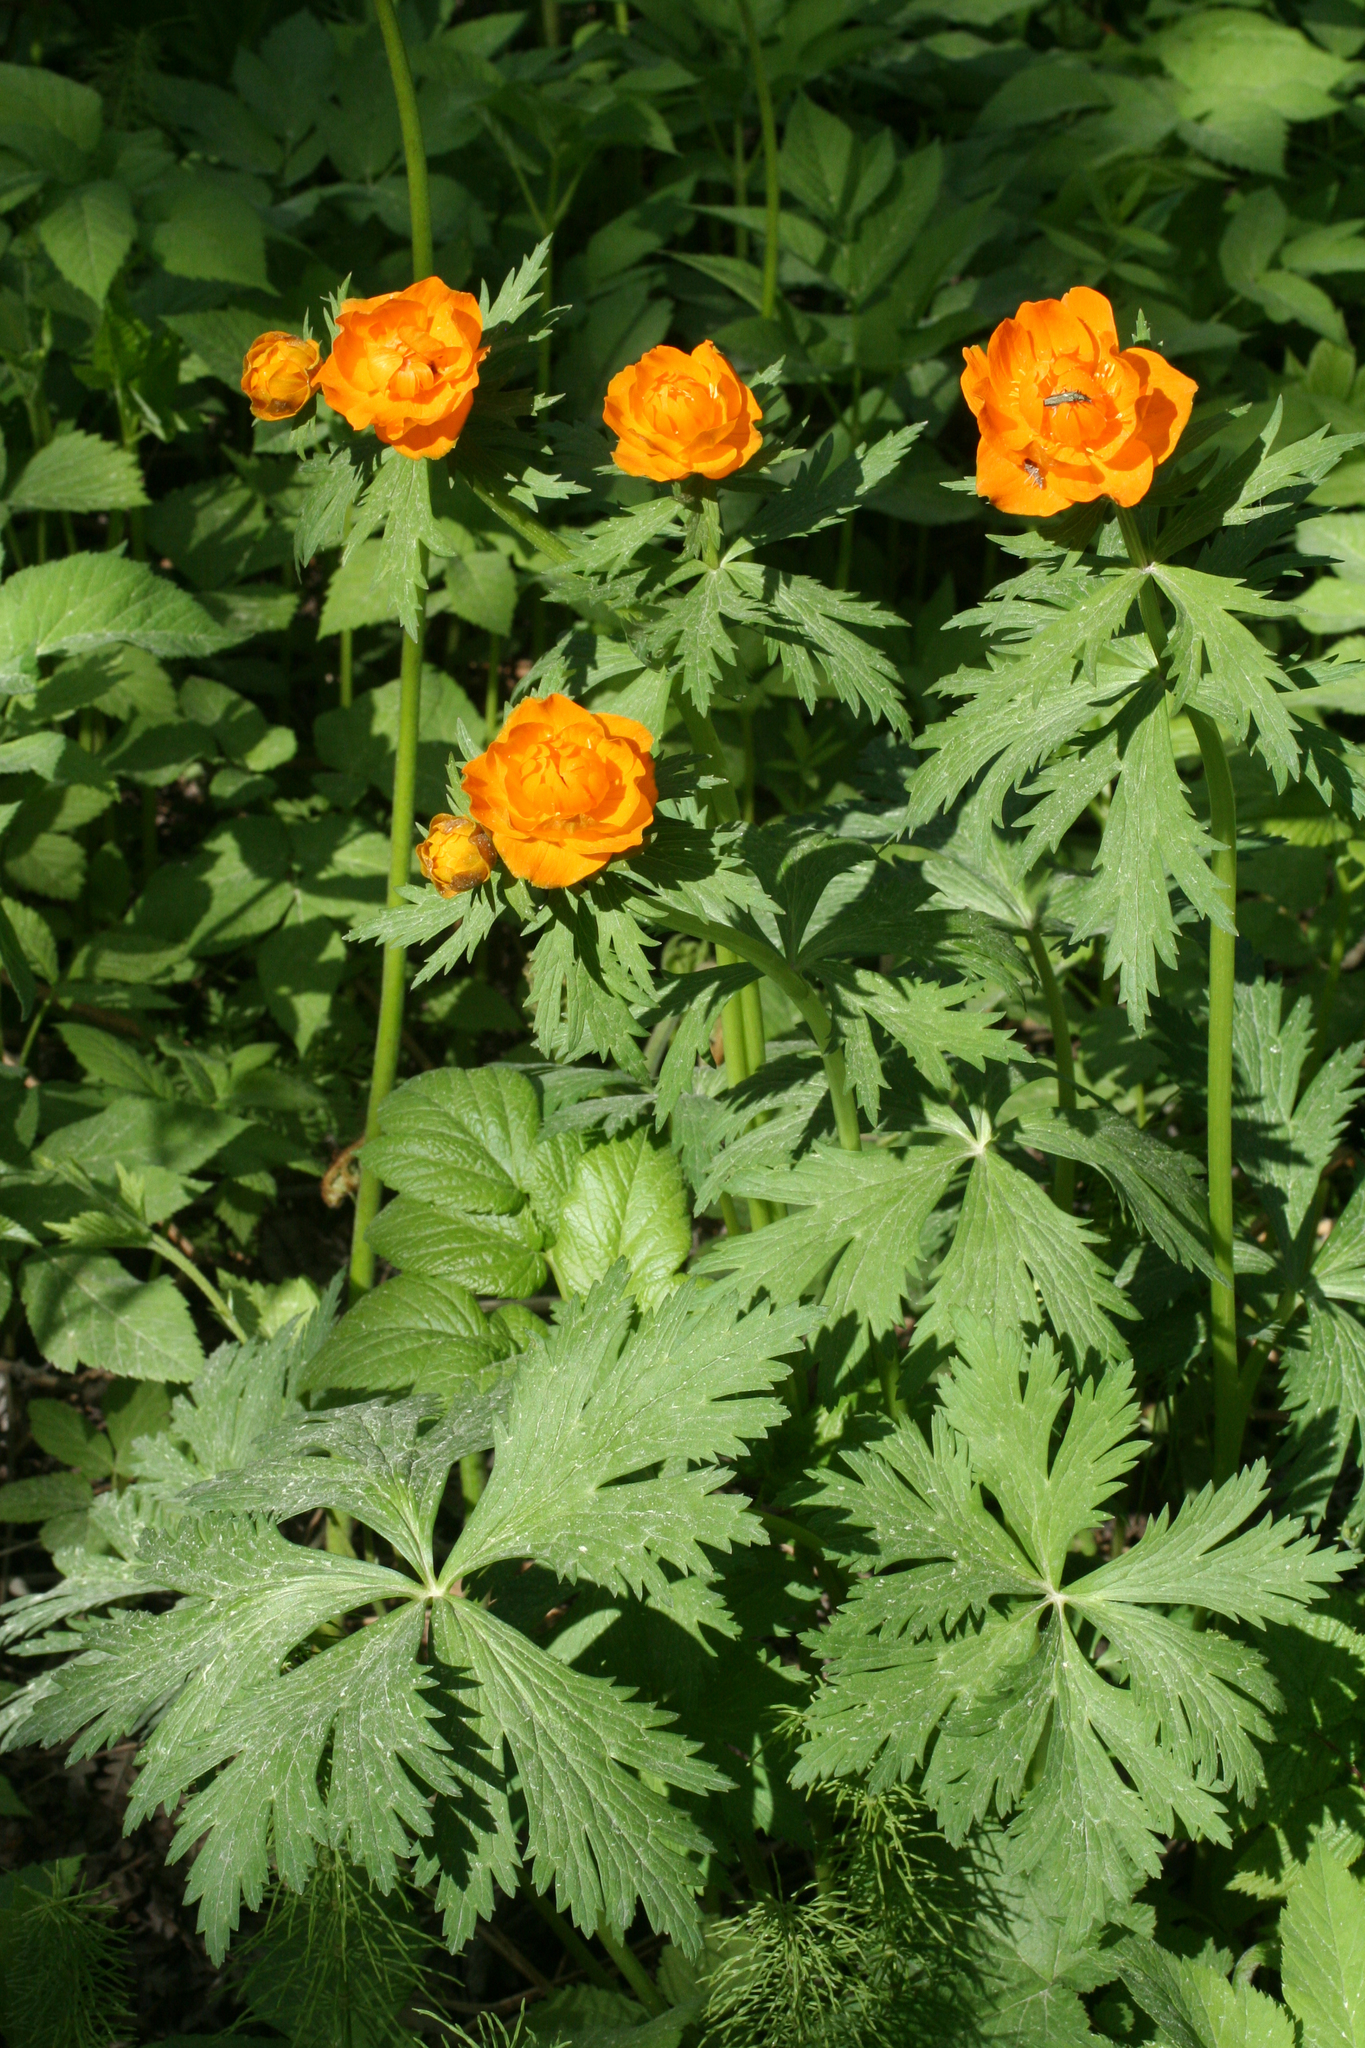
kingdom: Plantae
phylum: Tracheophyta
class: Magnoliopsida
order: Ranunculales
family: Ranunculaceae
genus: Trollius
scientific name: Trollius asiaticus
